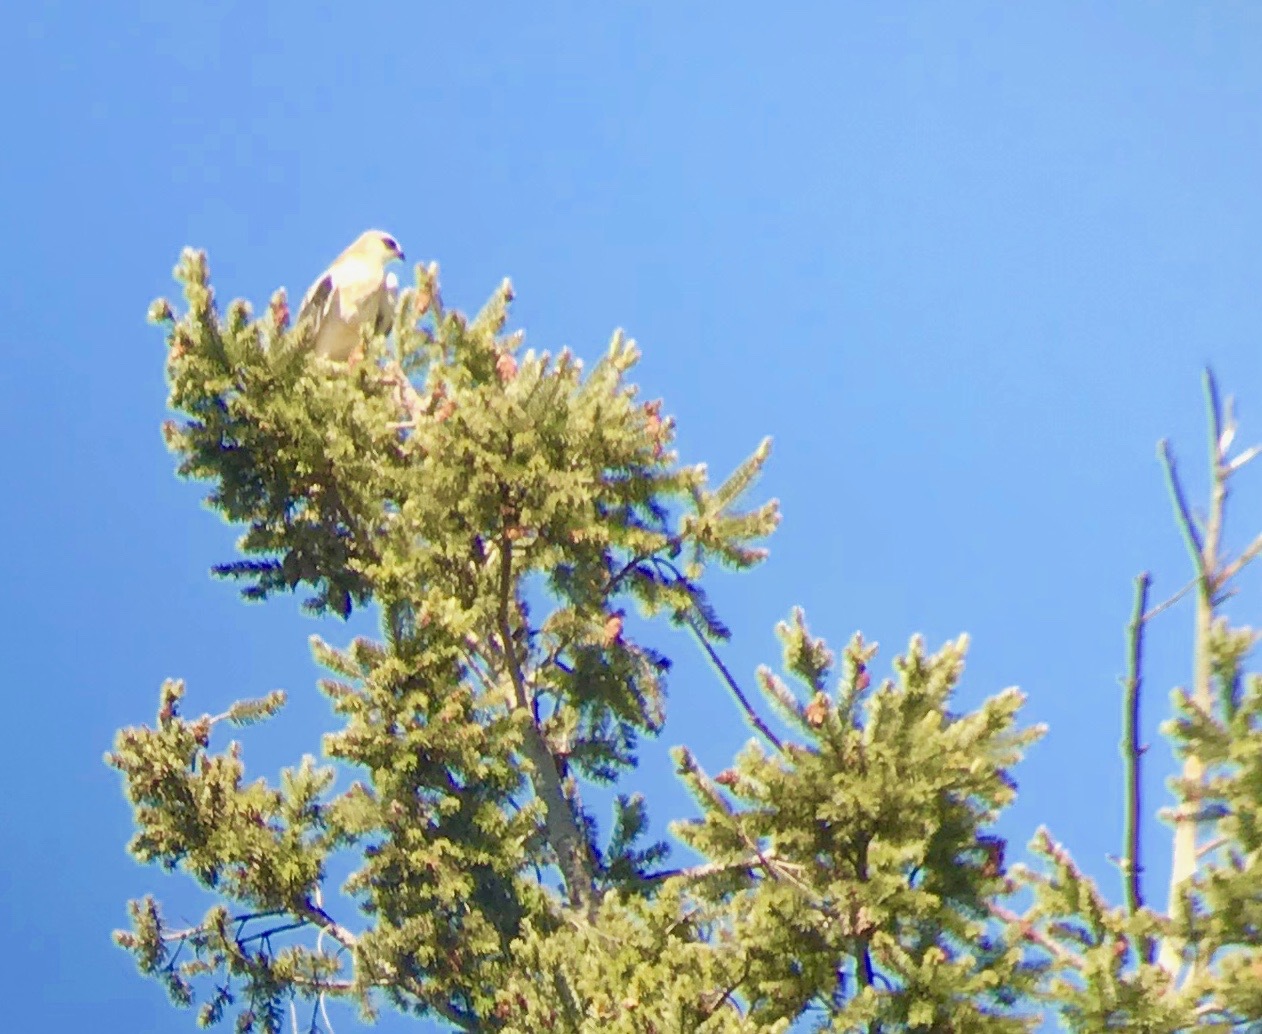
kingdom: Animalia
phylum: Chordata
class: Aves
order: Accipitriformes
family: Accipitridae
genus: Elanus
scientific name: Elanus leucurus
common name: White-tailed kite
